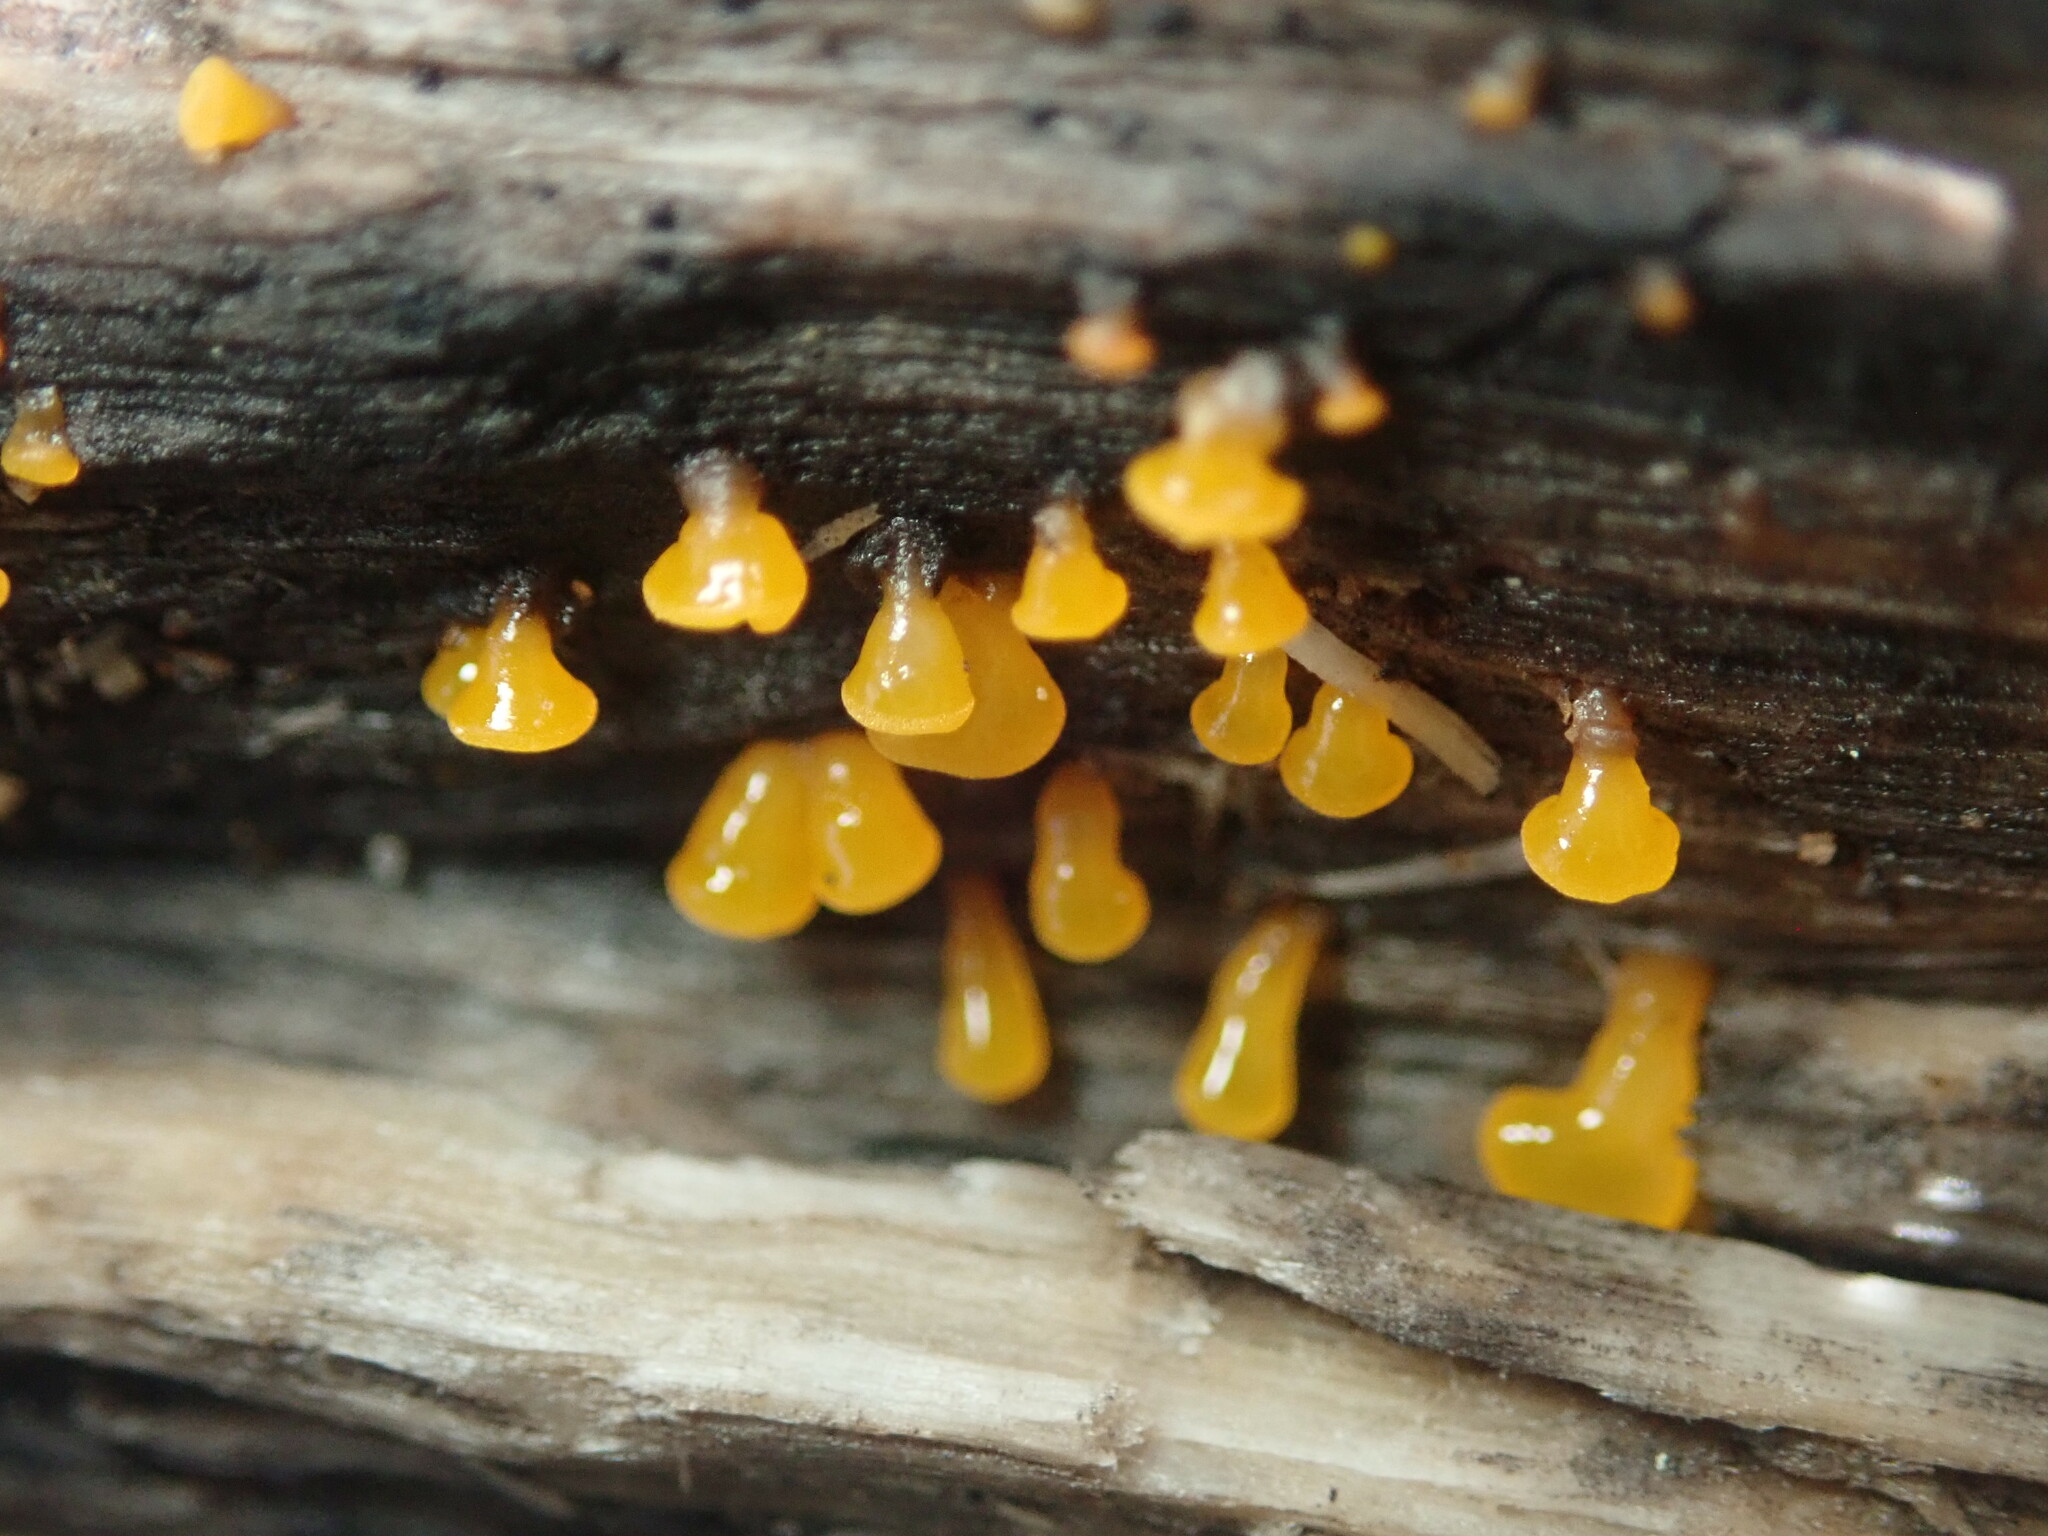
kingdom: Fungi
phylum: Basidiomycota
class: Dacrymycetes
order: Dacrymycetales
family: Dacrymycetaceae
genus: Dacrymyces
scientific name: Dacrymyces capitatus
